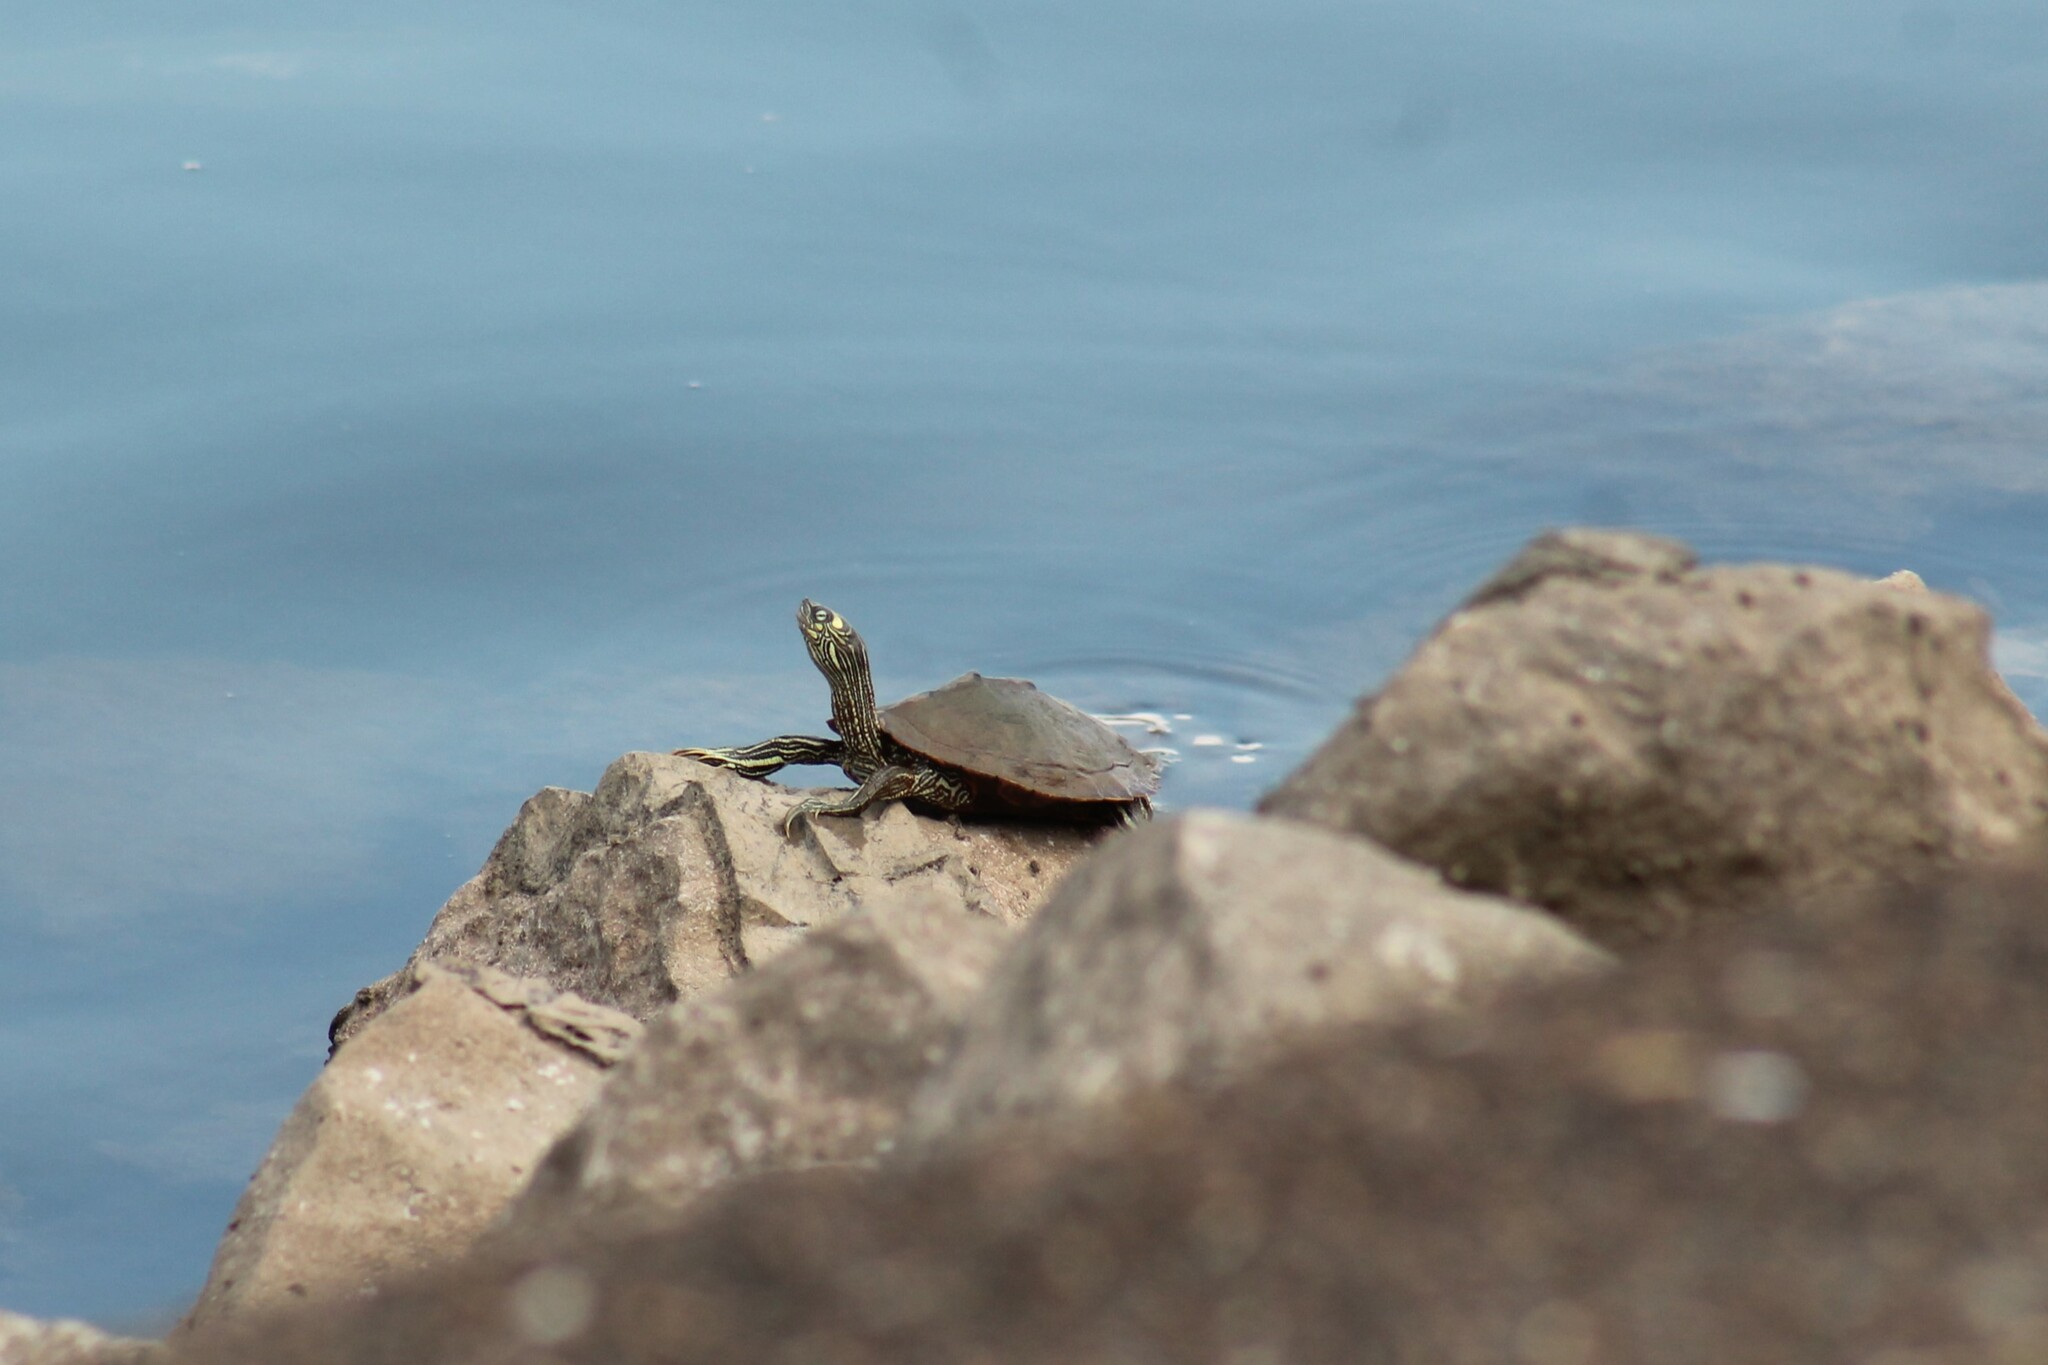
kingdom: Animalia
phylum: Chordata
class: Testudines
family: Emydidae
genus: Graptemys
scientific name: Graptemys ouachitensis
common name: Ouachita map turtle
